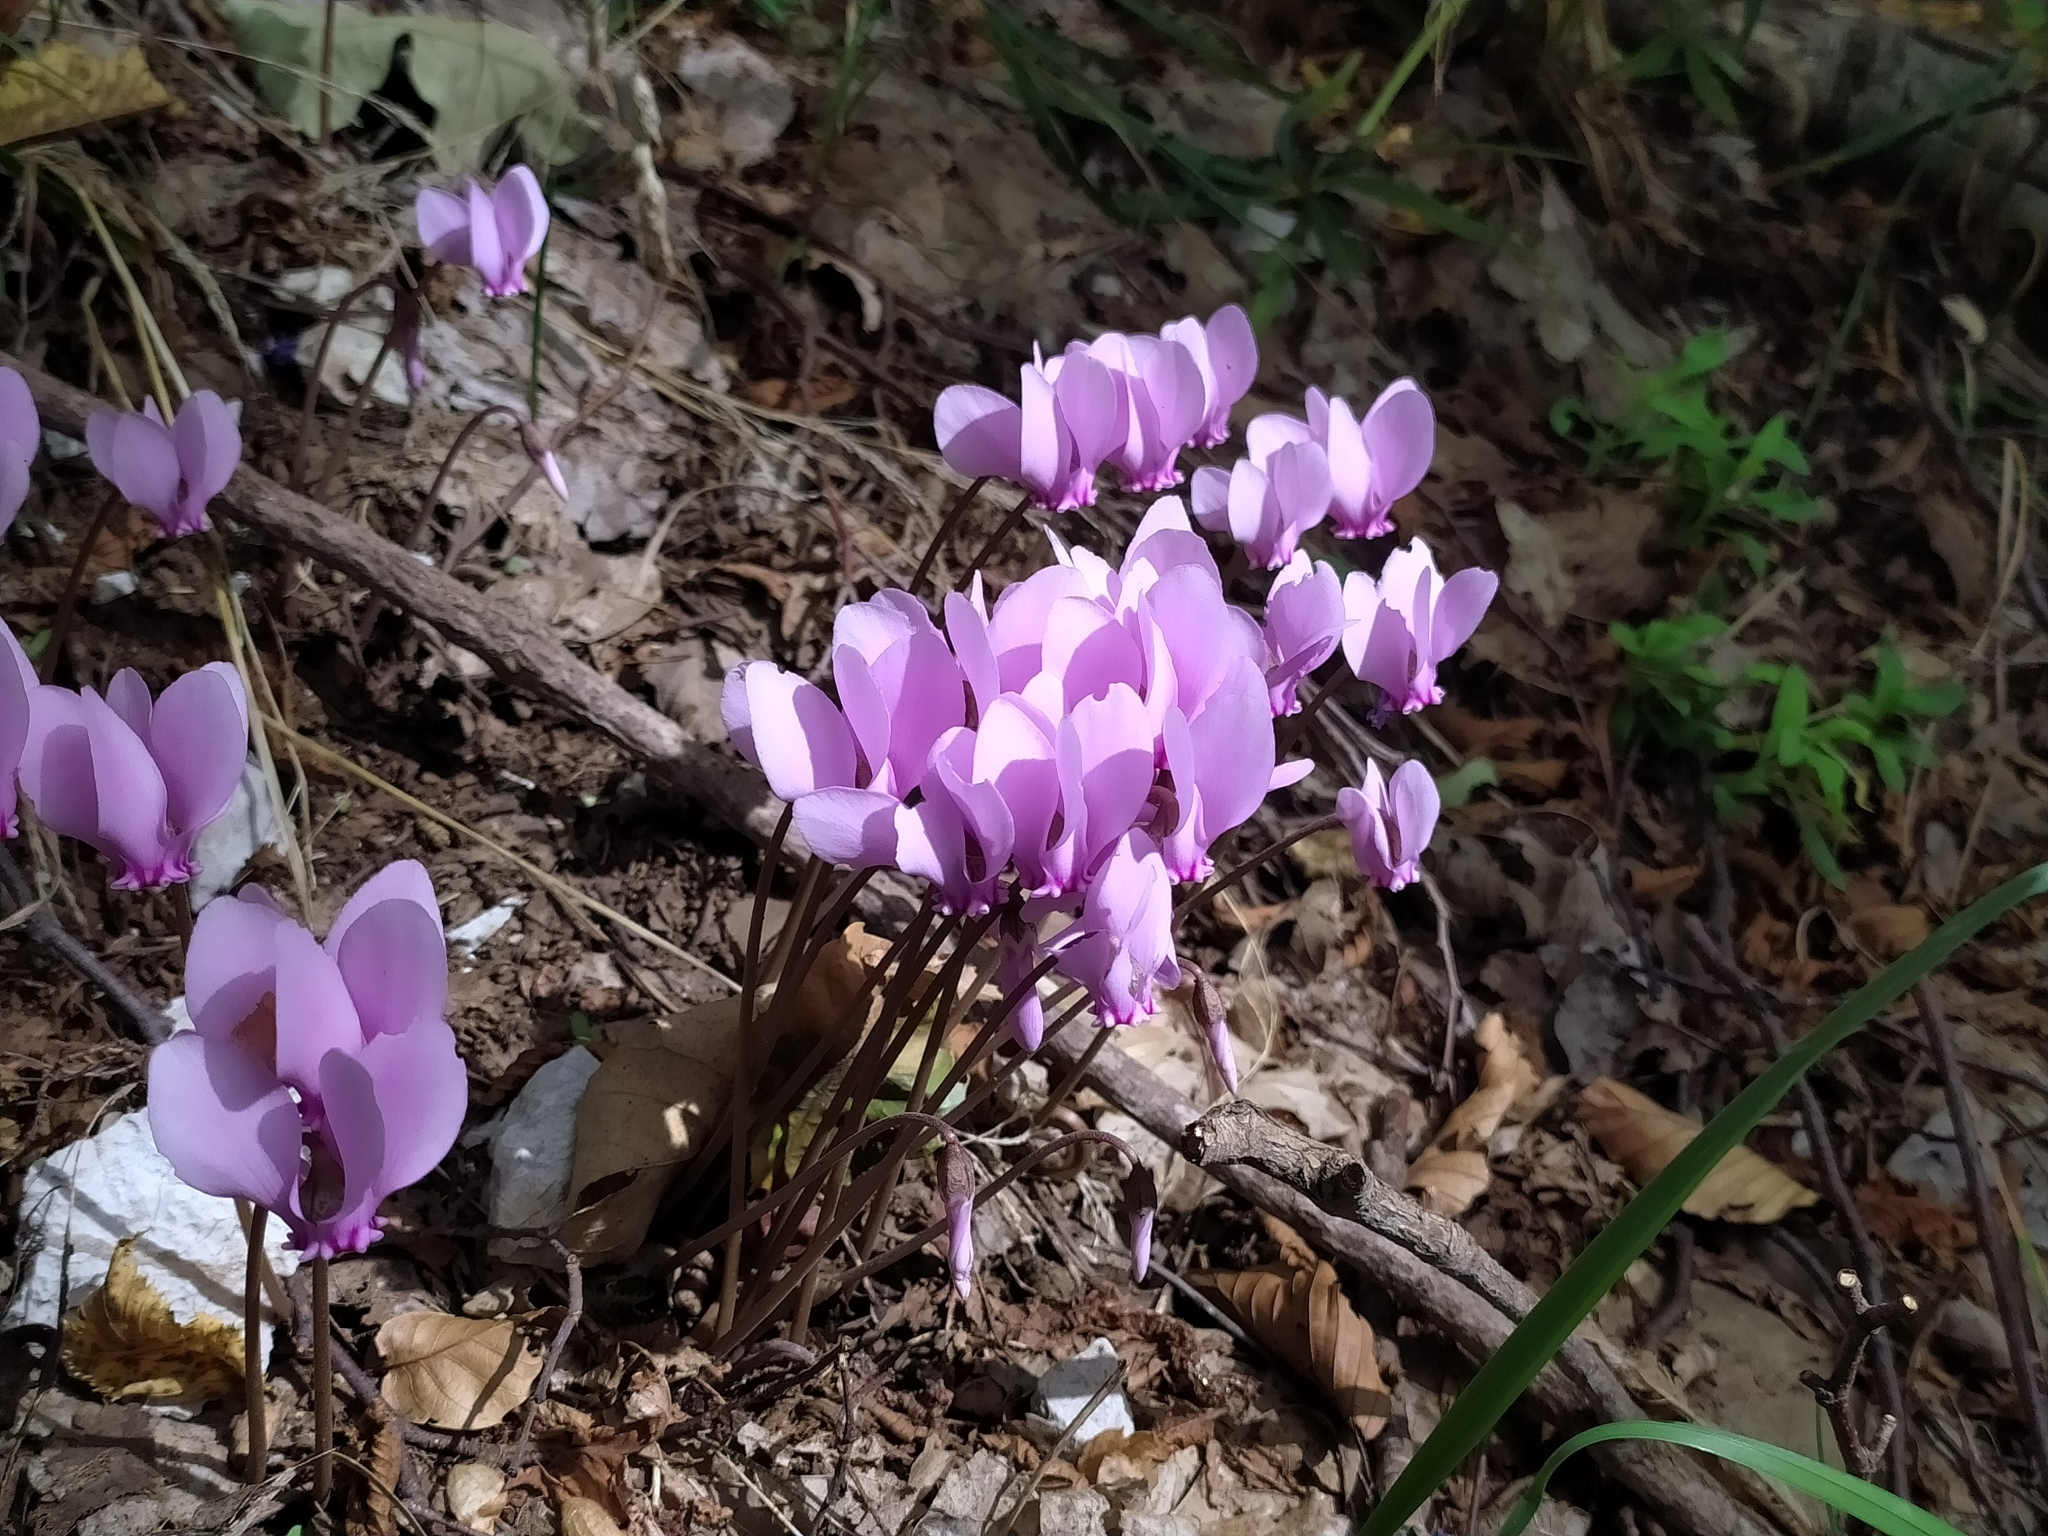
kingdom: Plantae
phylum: Tracheophyta
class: Magnoliopsida
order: Ericales
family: Primulaceae
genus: Cyclamen
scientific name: Cyclamen hederifolium
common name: Sowbread
